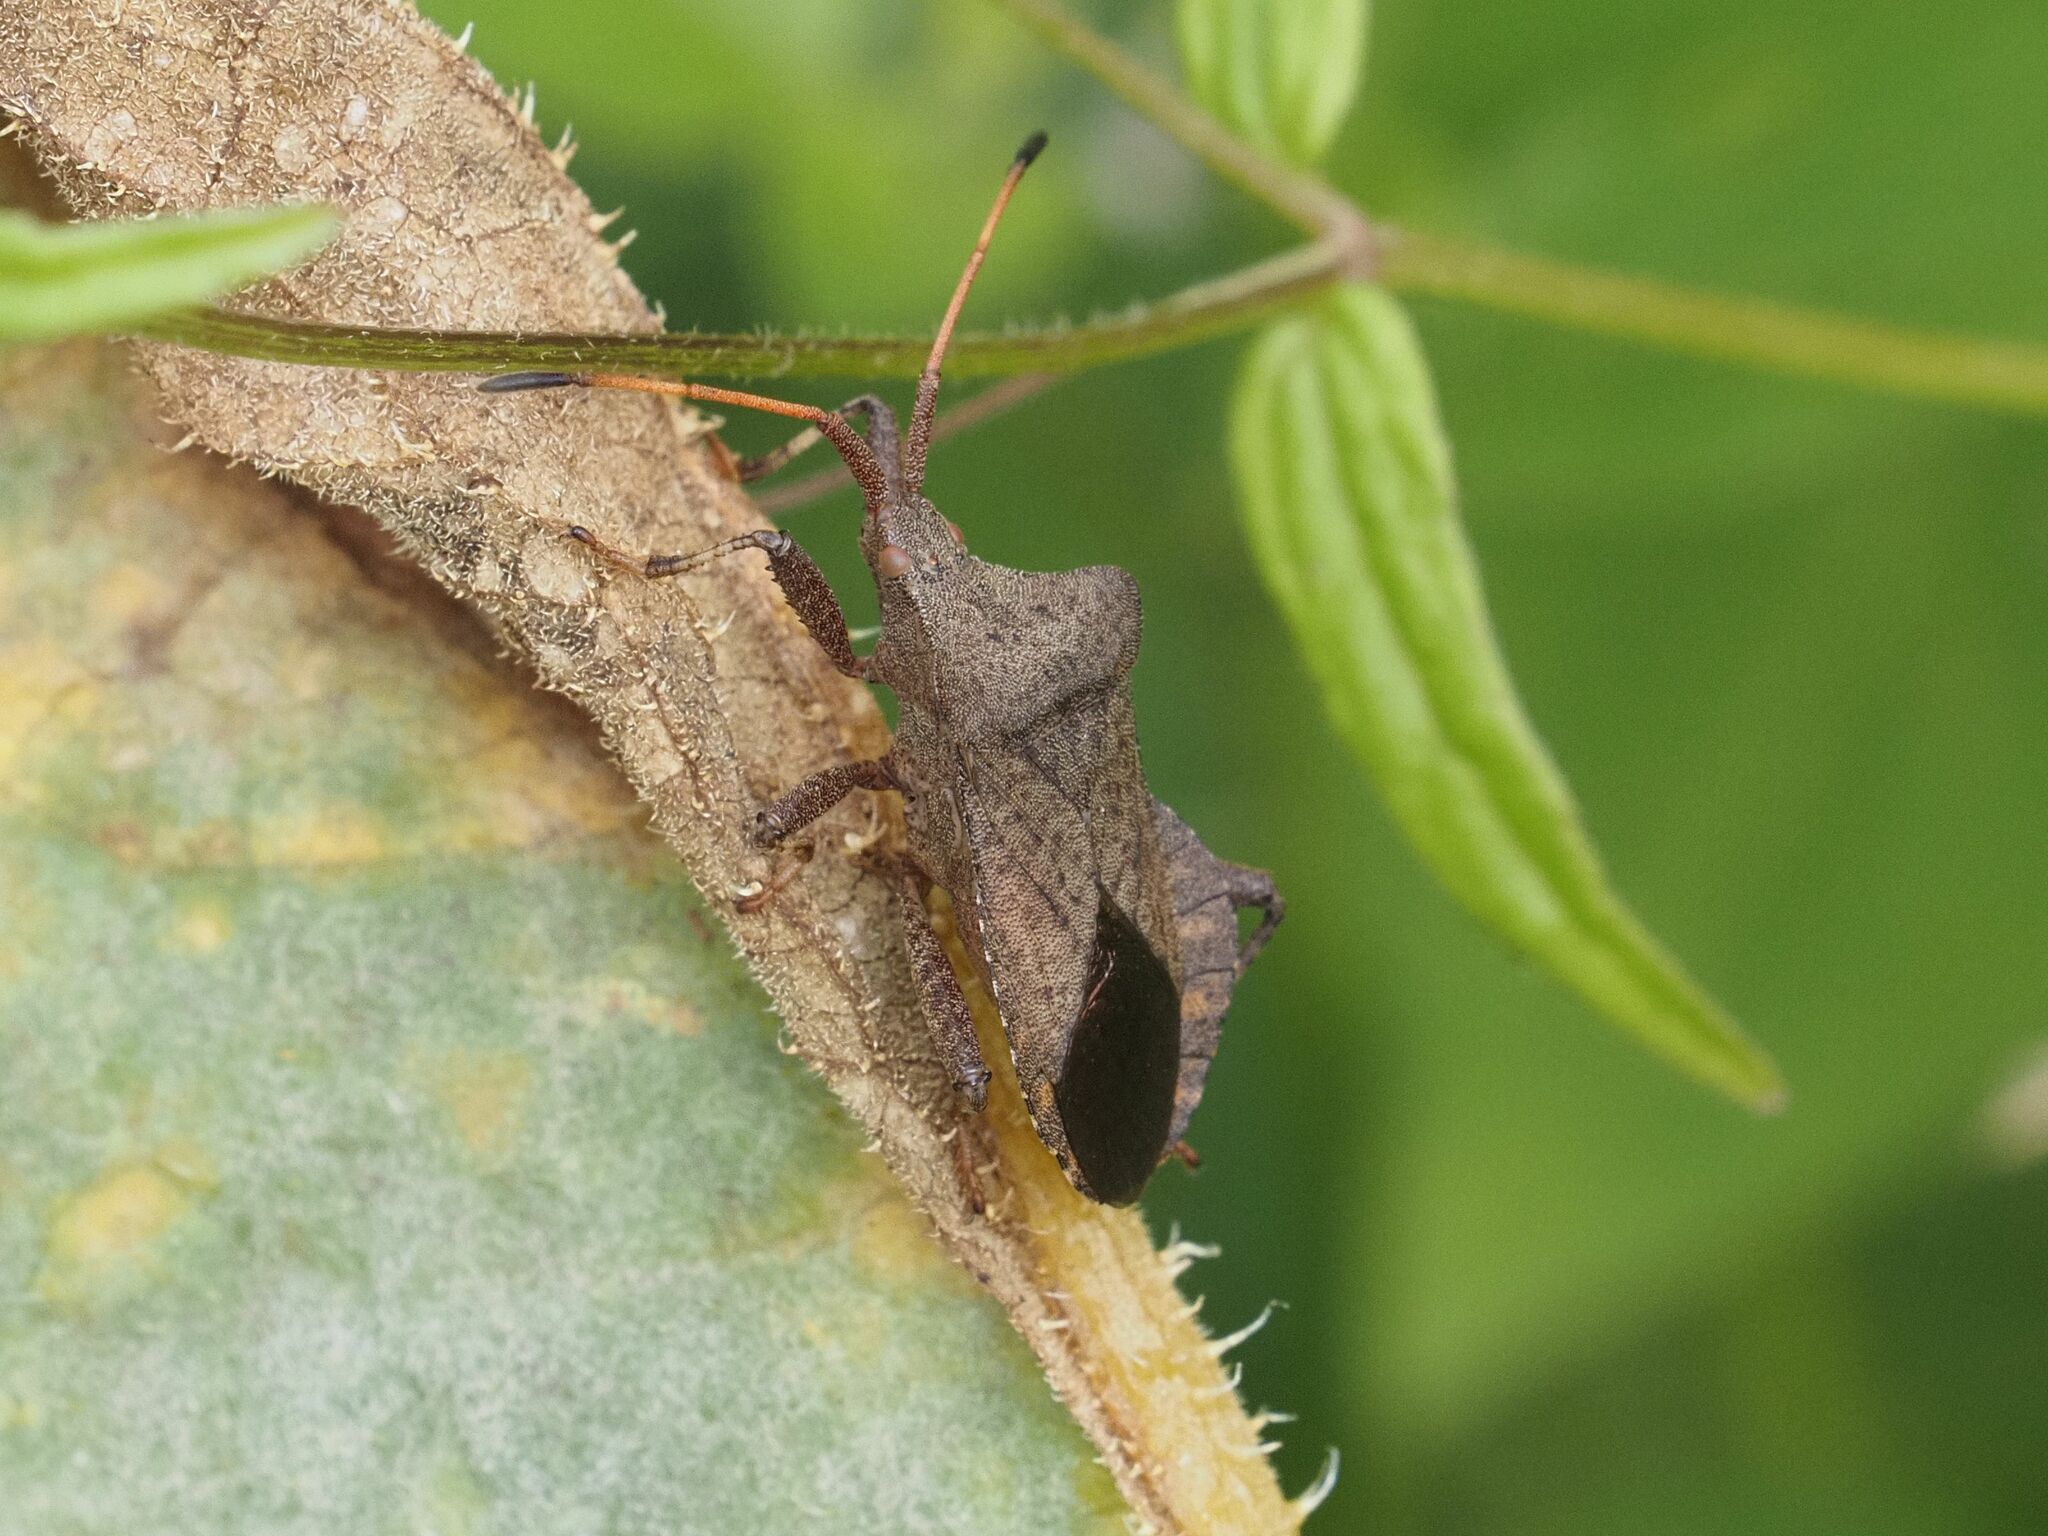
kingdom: Animalia
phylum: Arthropoda
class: Insecta
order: Hemiptera
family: Coreidae
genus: Coreus
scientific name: Coreus marginatus
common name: Dock bug
